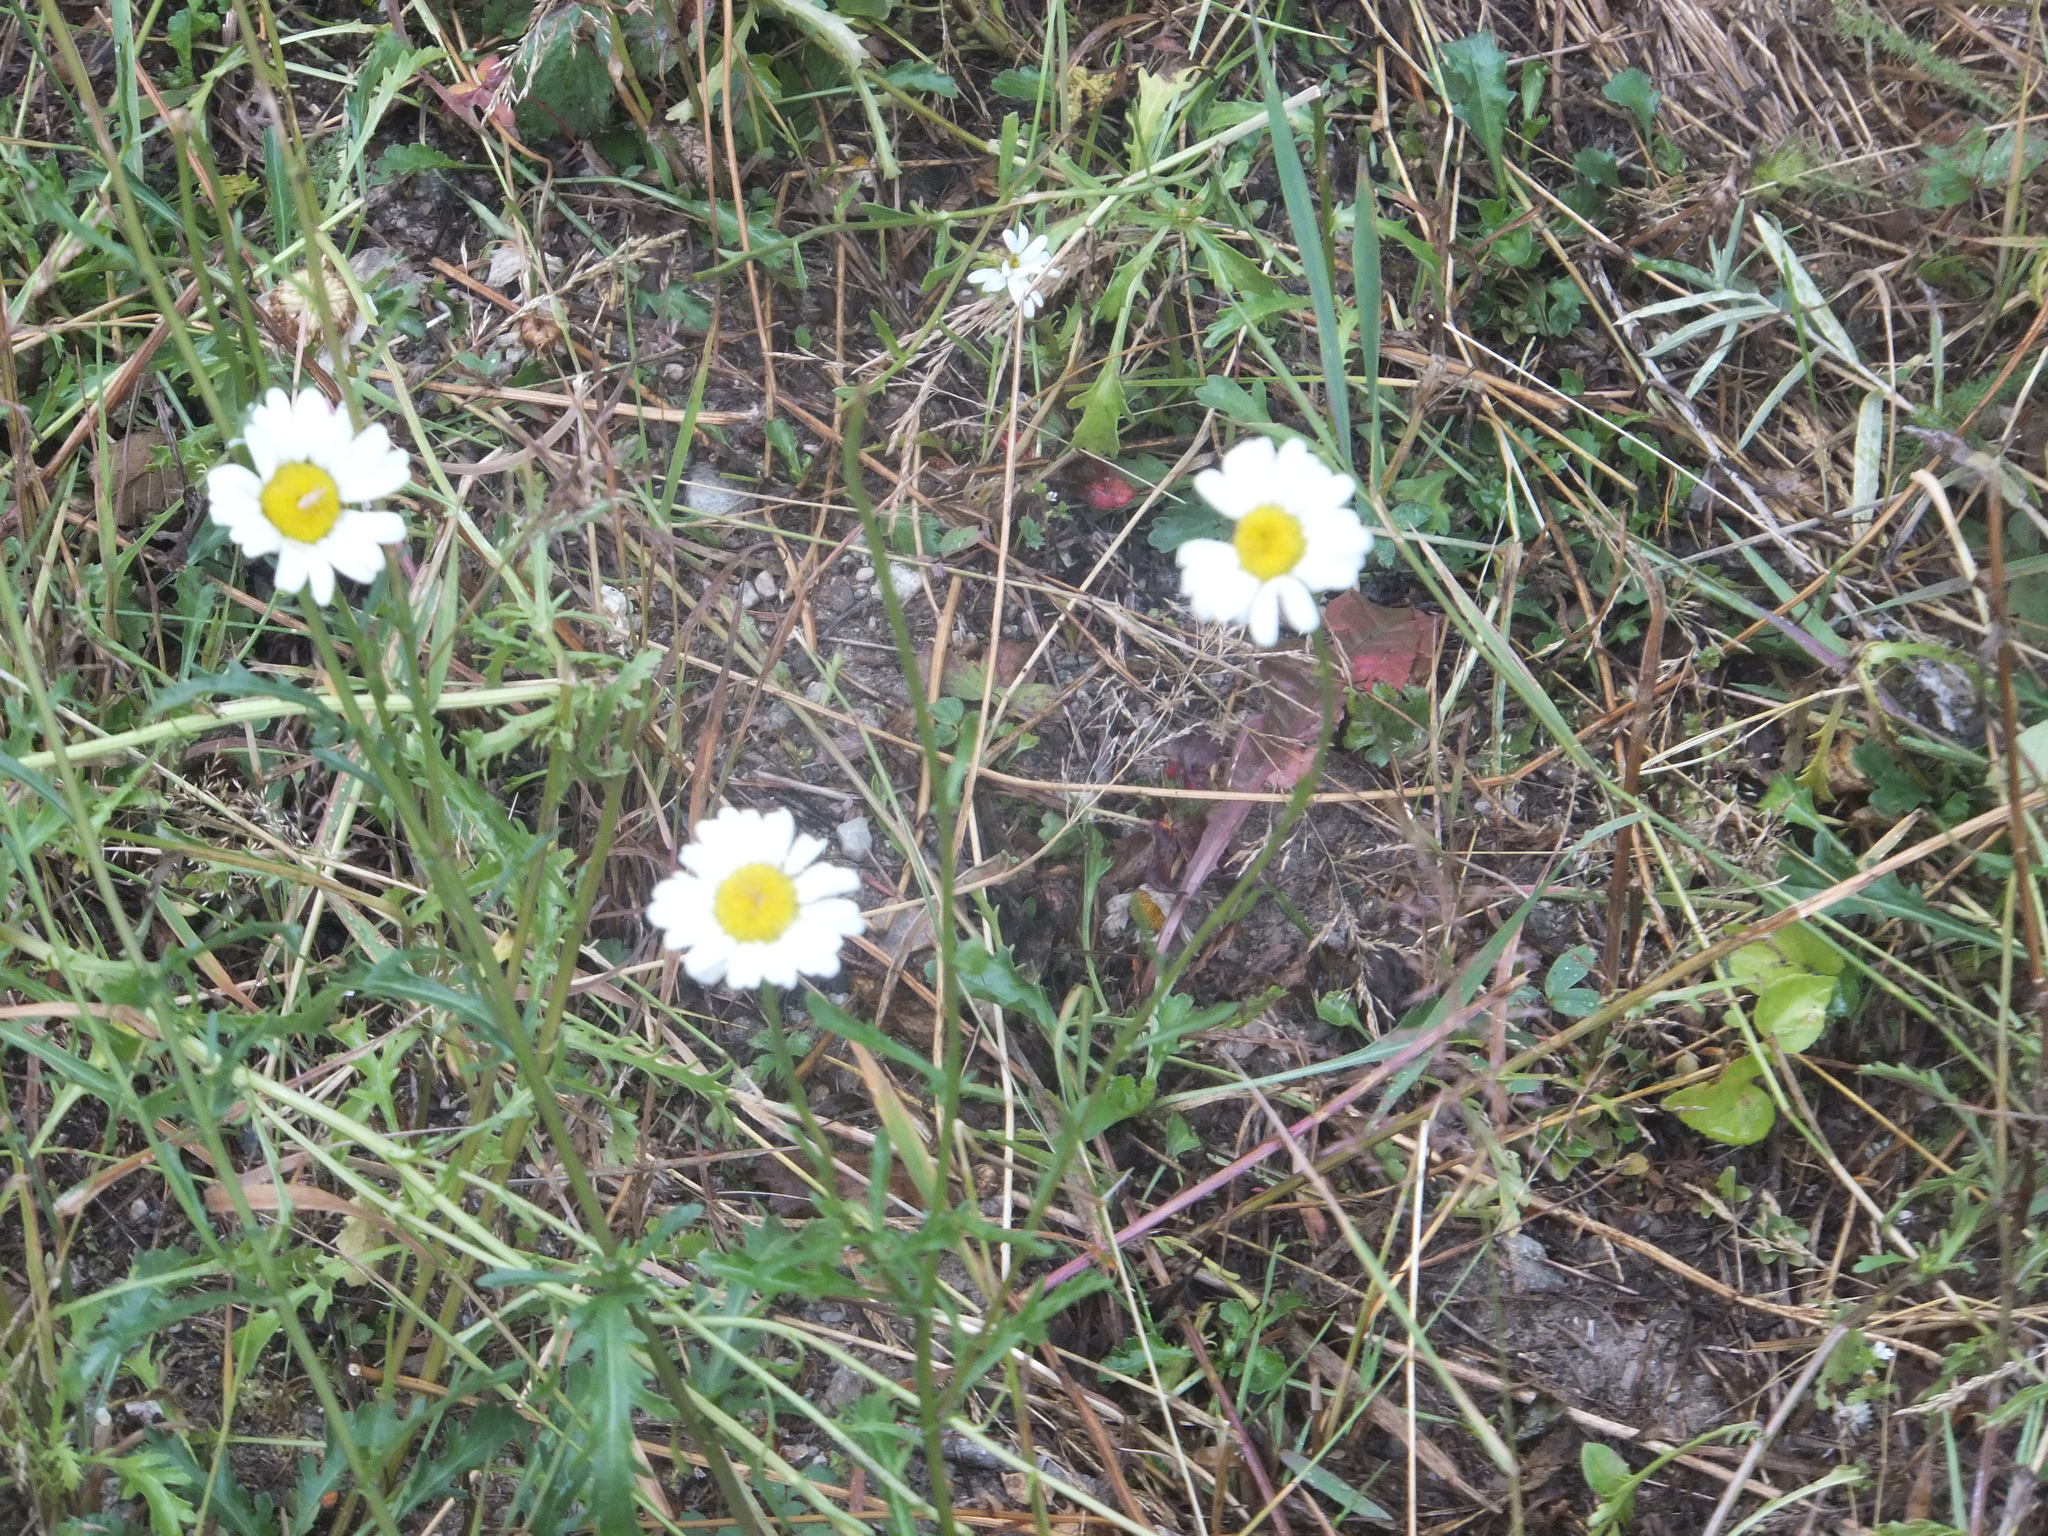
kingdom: Plantae
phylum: Tracheophyta
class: Magnoliopsida
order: Asterales
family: Asteraceae
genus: Leucanthemum
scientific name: Leucanthemum vulgare
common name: Oxeye daisy
